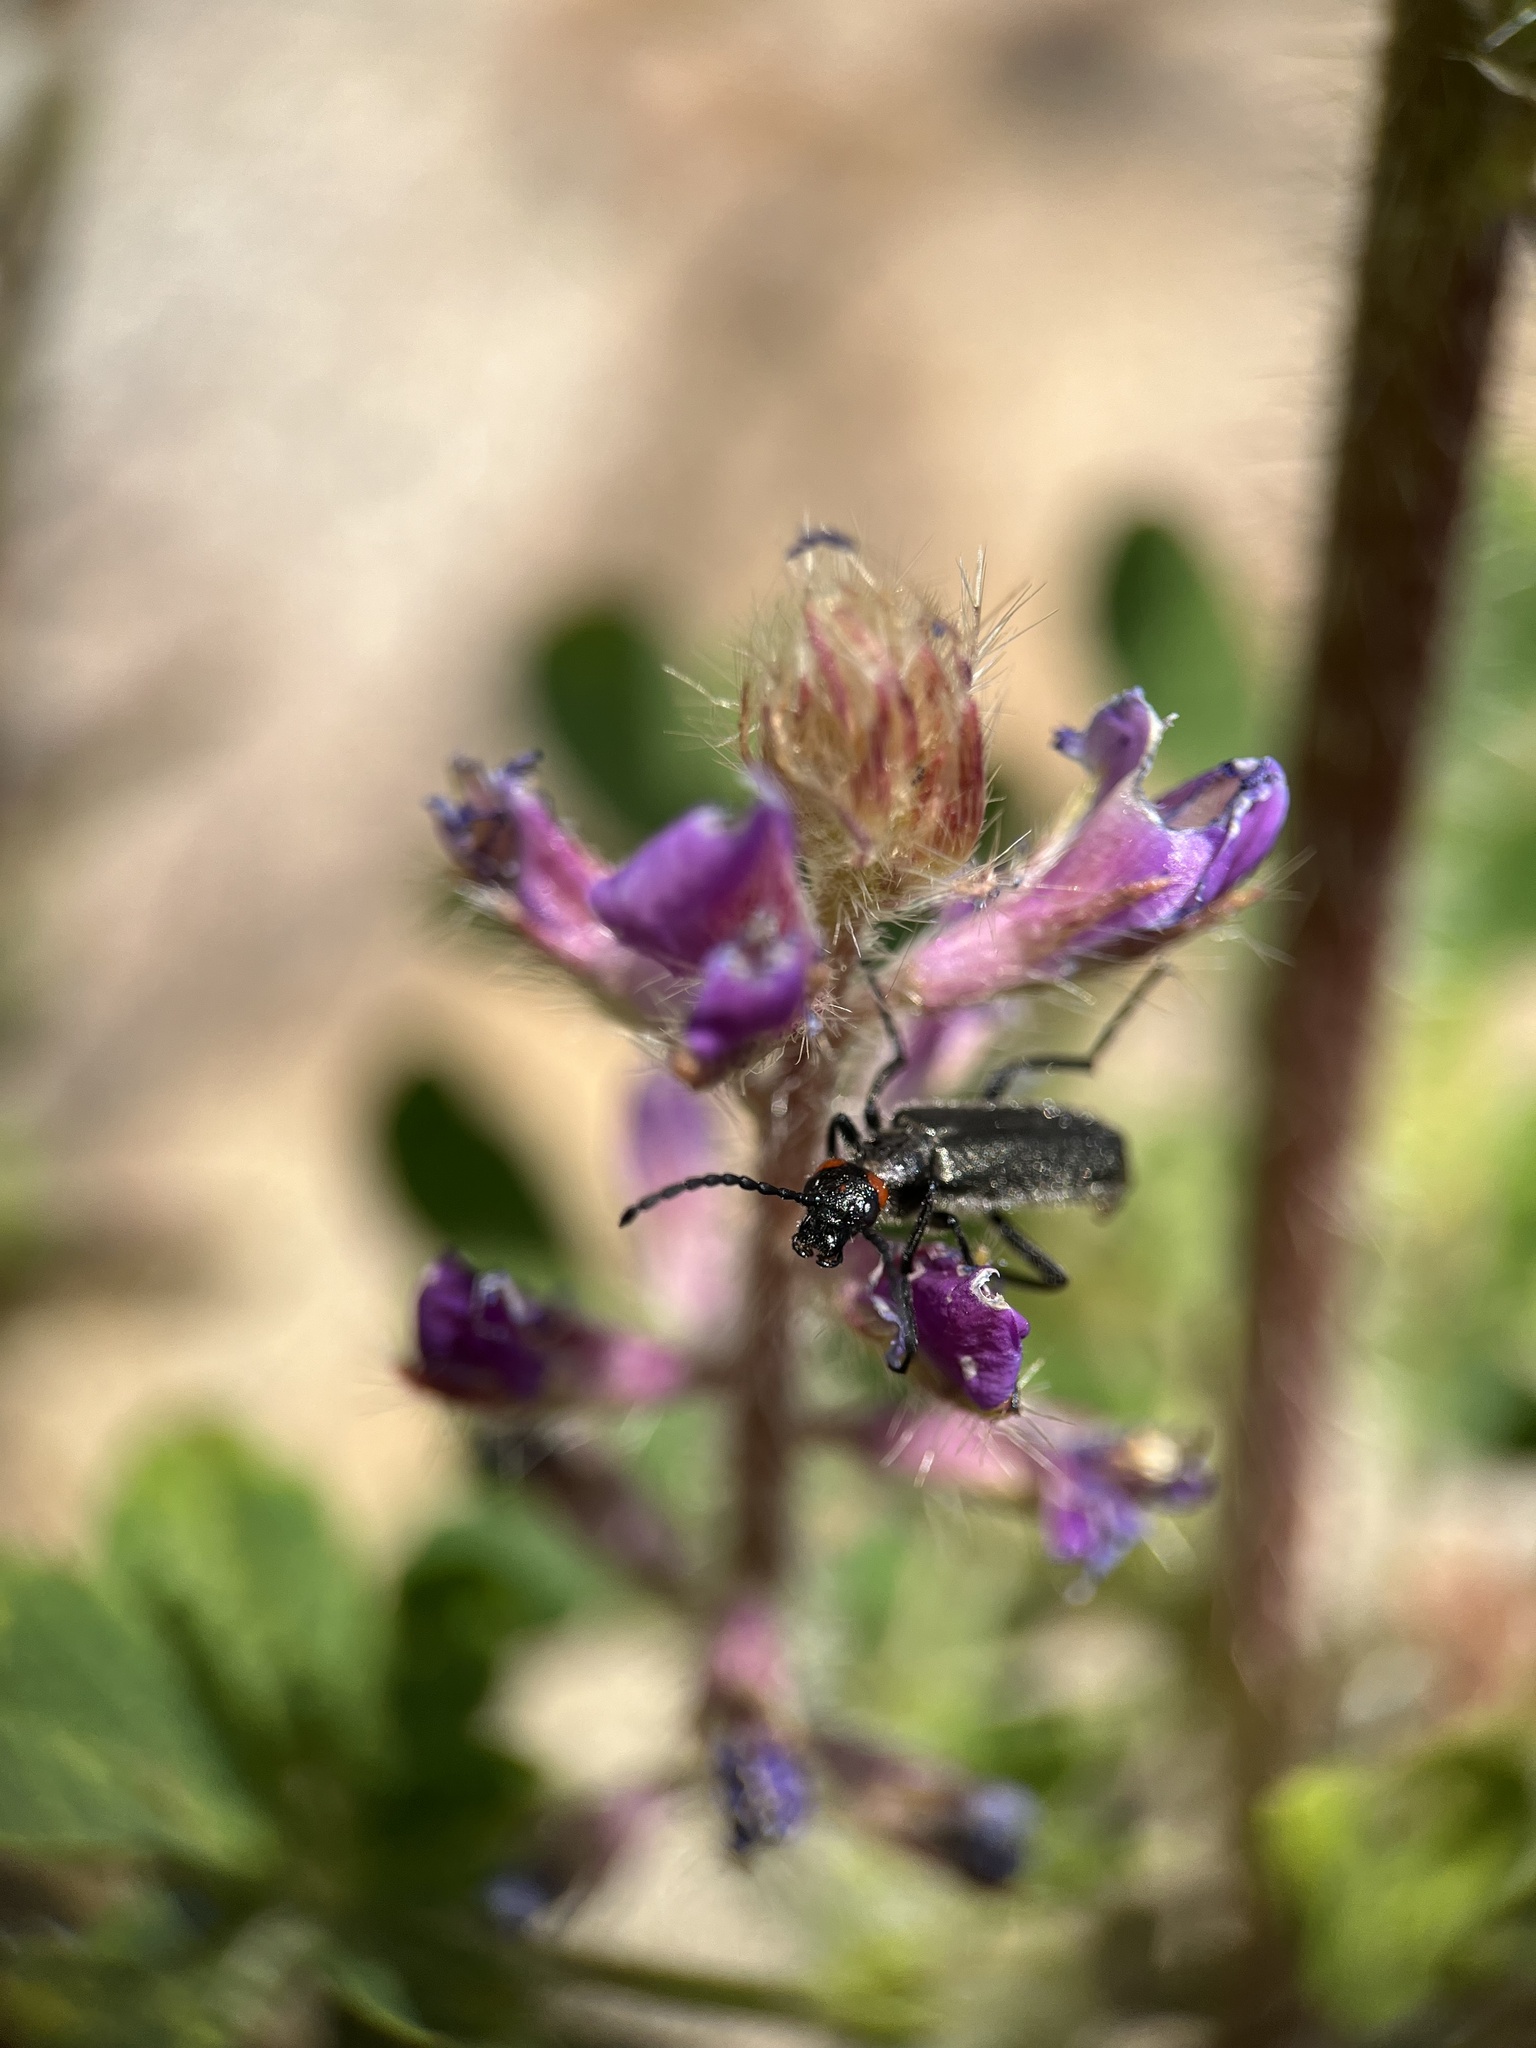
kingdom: Animalia
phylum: Arthropoda
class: Insecta
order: Coleoptera
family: Meloidae
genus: Lytta
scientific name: Lytta auriculata
